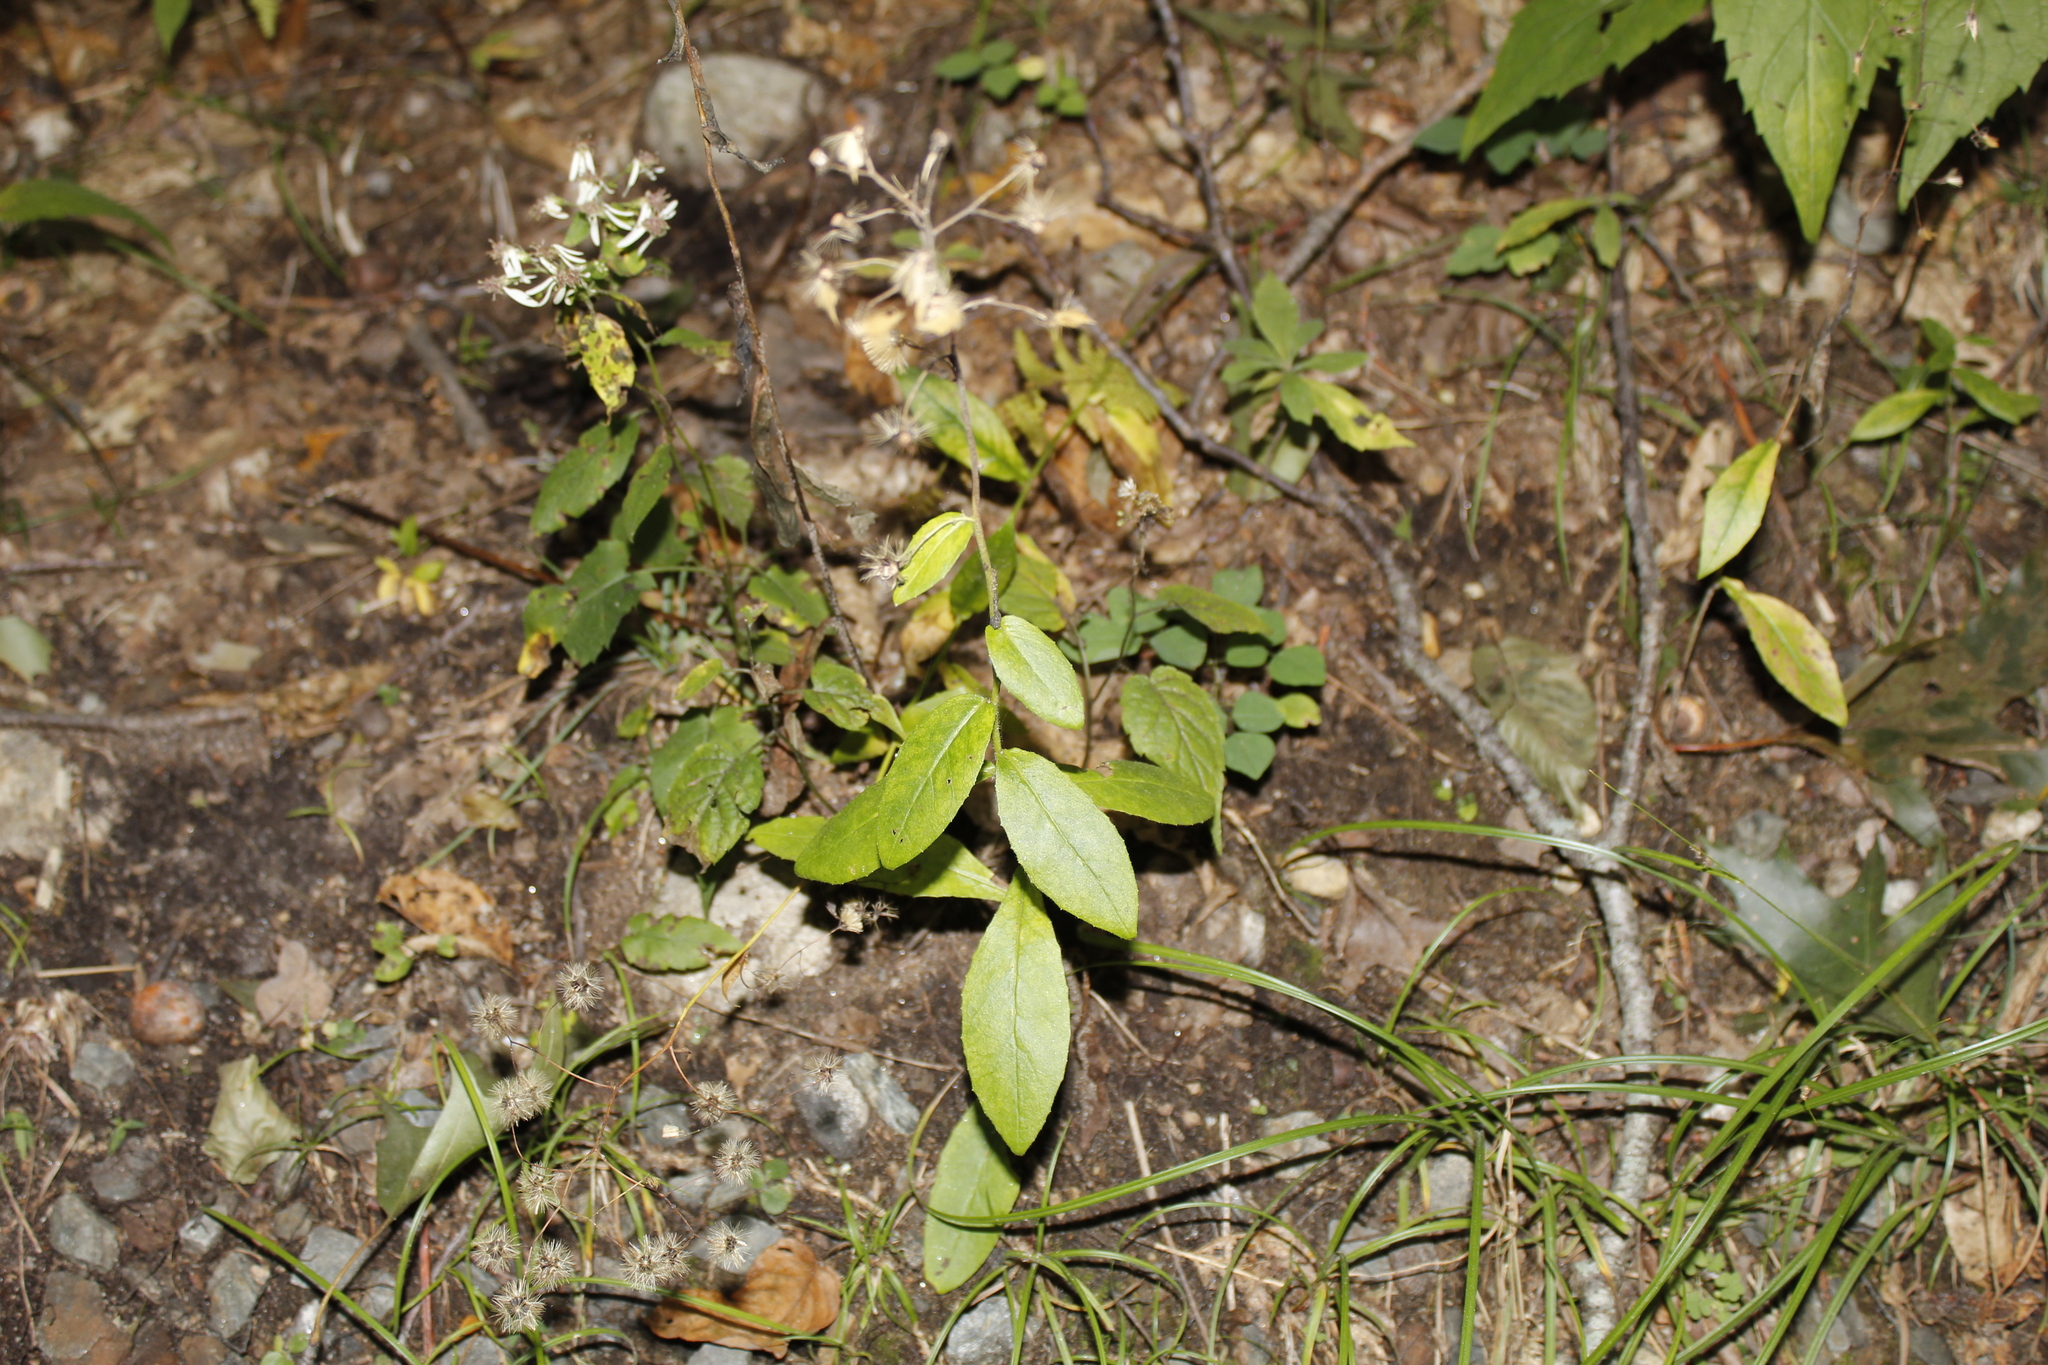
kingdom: Plantae
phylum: Tracheophyta
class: Magnoliopsida
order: Asterales
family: Asteraceae
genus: Hieracium
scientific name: Hieracium scabrum
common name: Rough hawkweed
